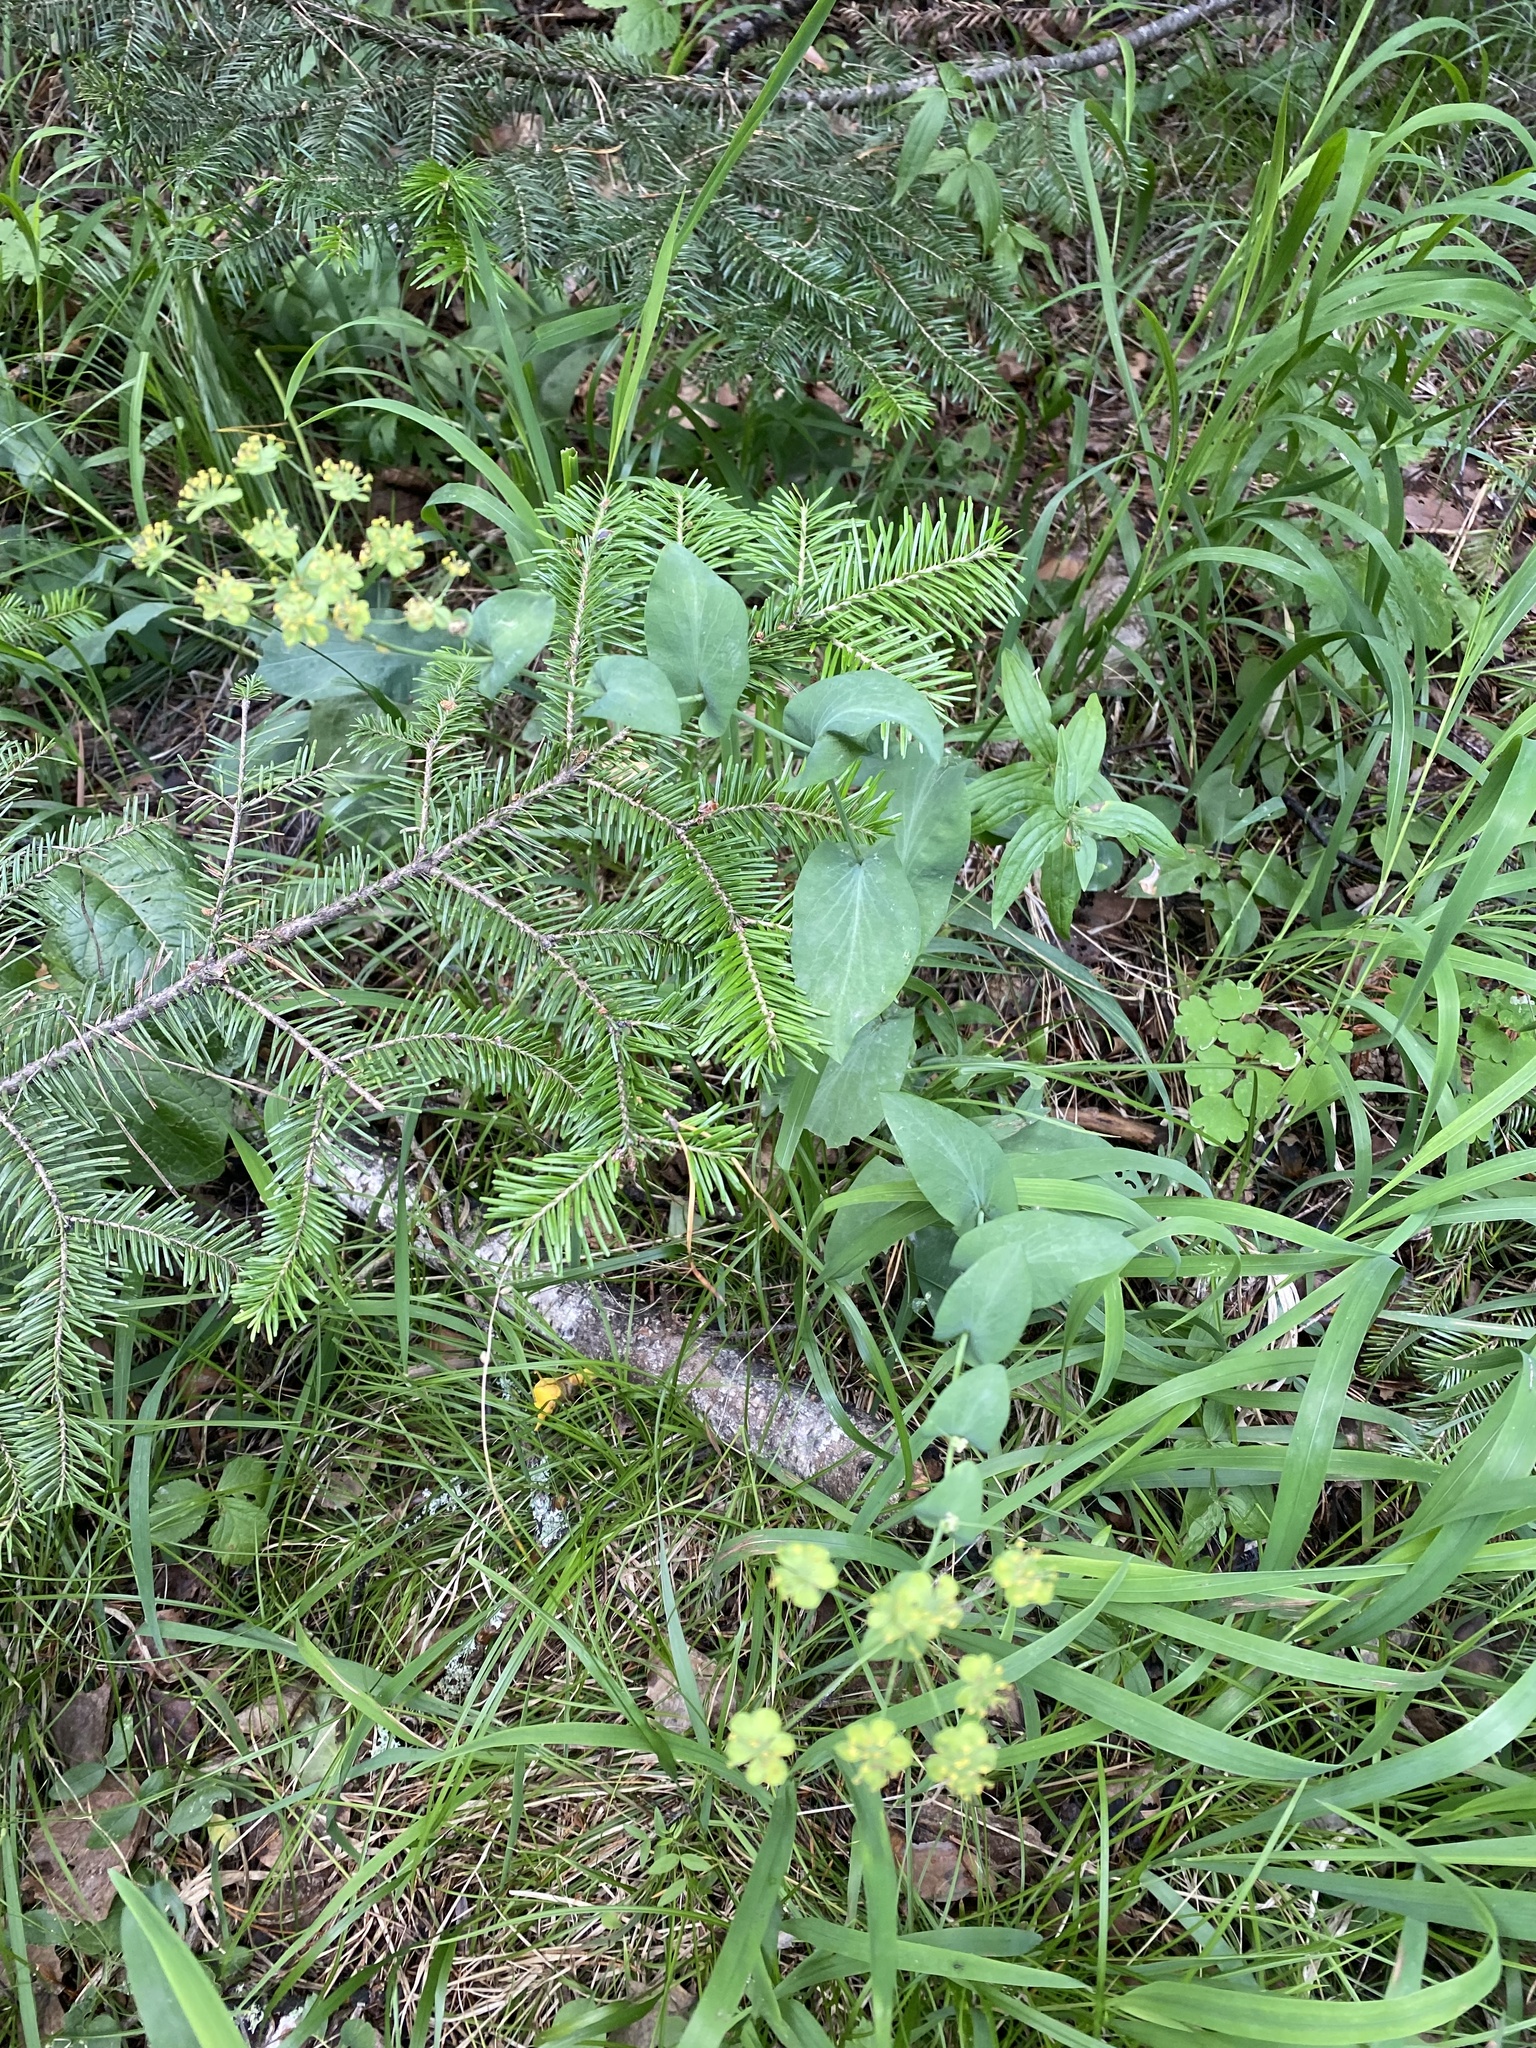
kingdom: Plantae
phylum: Tracheophyta
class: Magnoliopsida
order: Apiales
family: Apiaceae
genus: Bupleurum
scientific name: Bupleurum aureum
